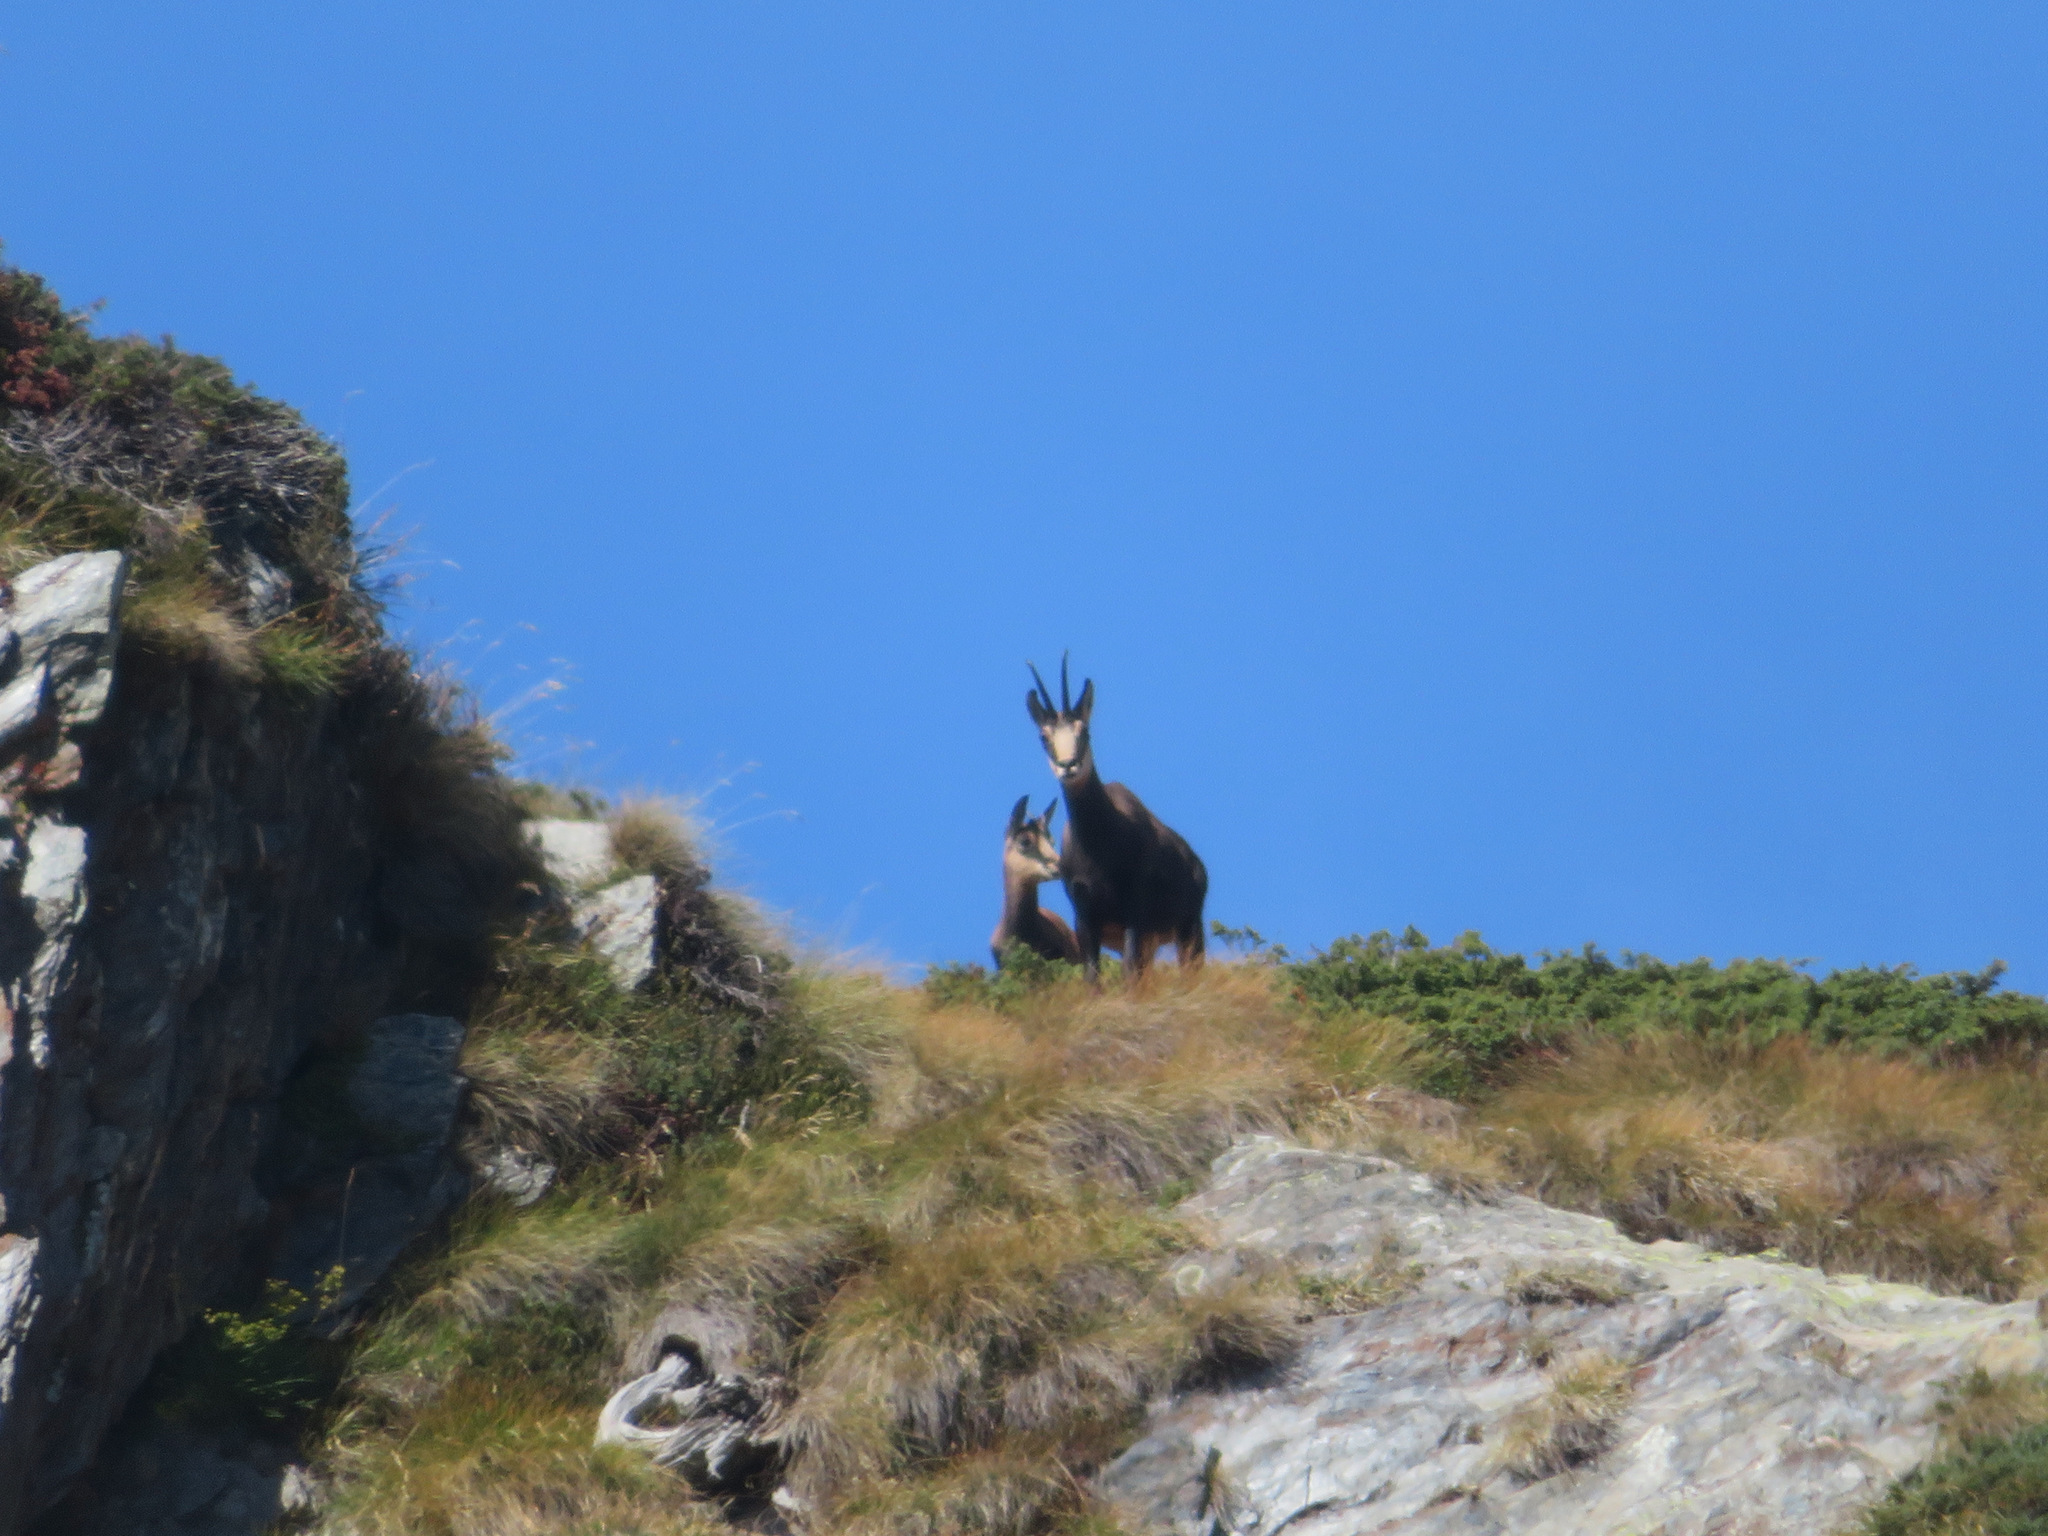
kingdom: Animalia
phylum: Chordata
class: Mammalia
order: Artiodactyla
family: Bovidae
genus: Rupicapra
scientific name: Rupicapra rupicapra
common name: Chamois
